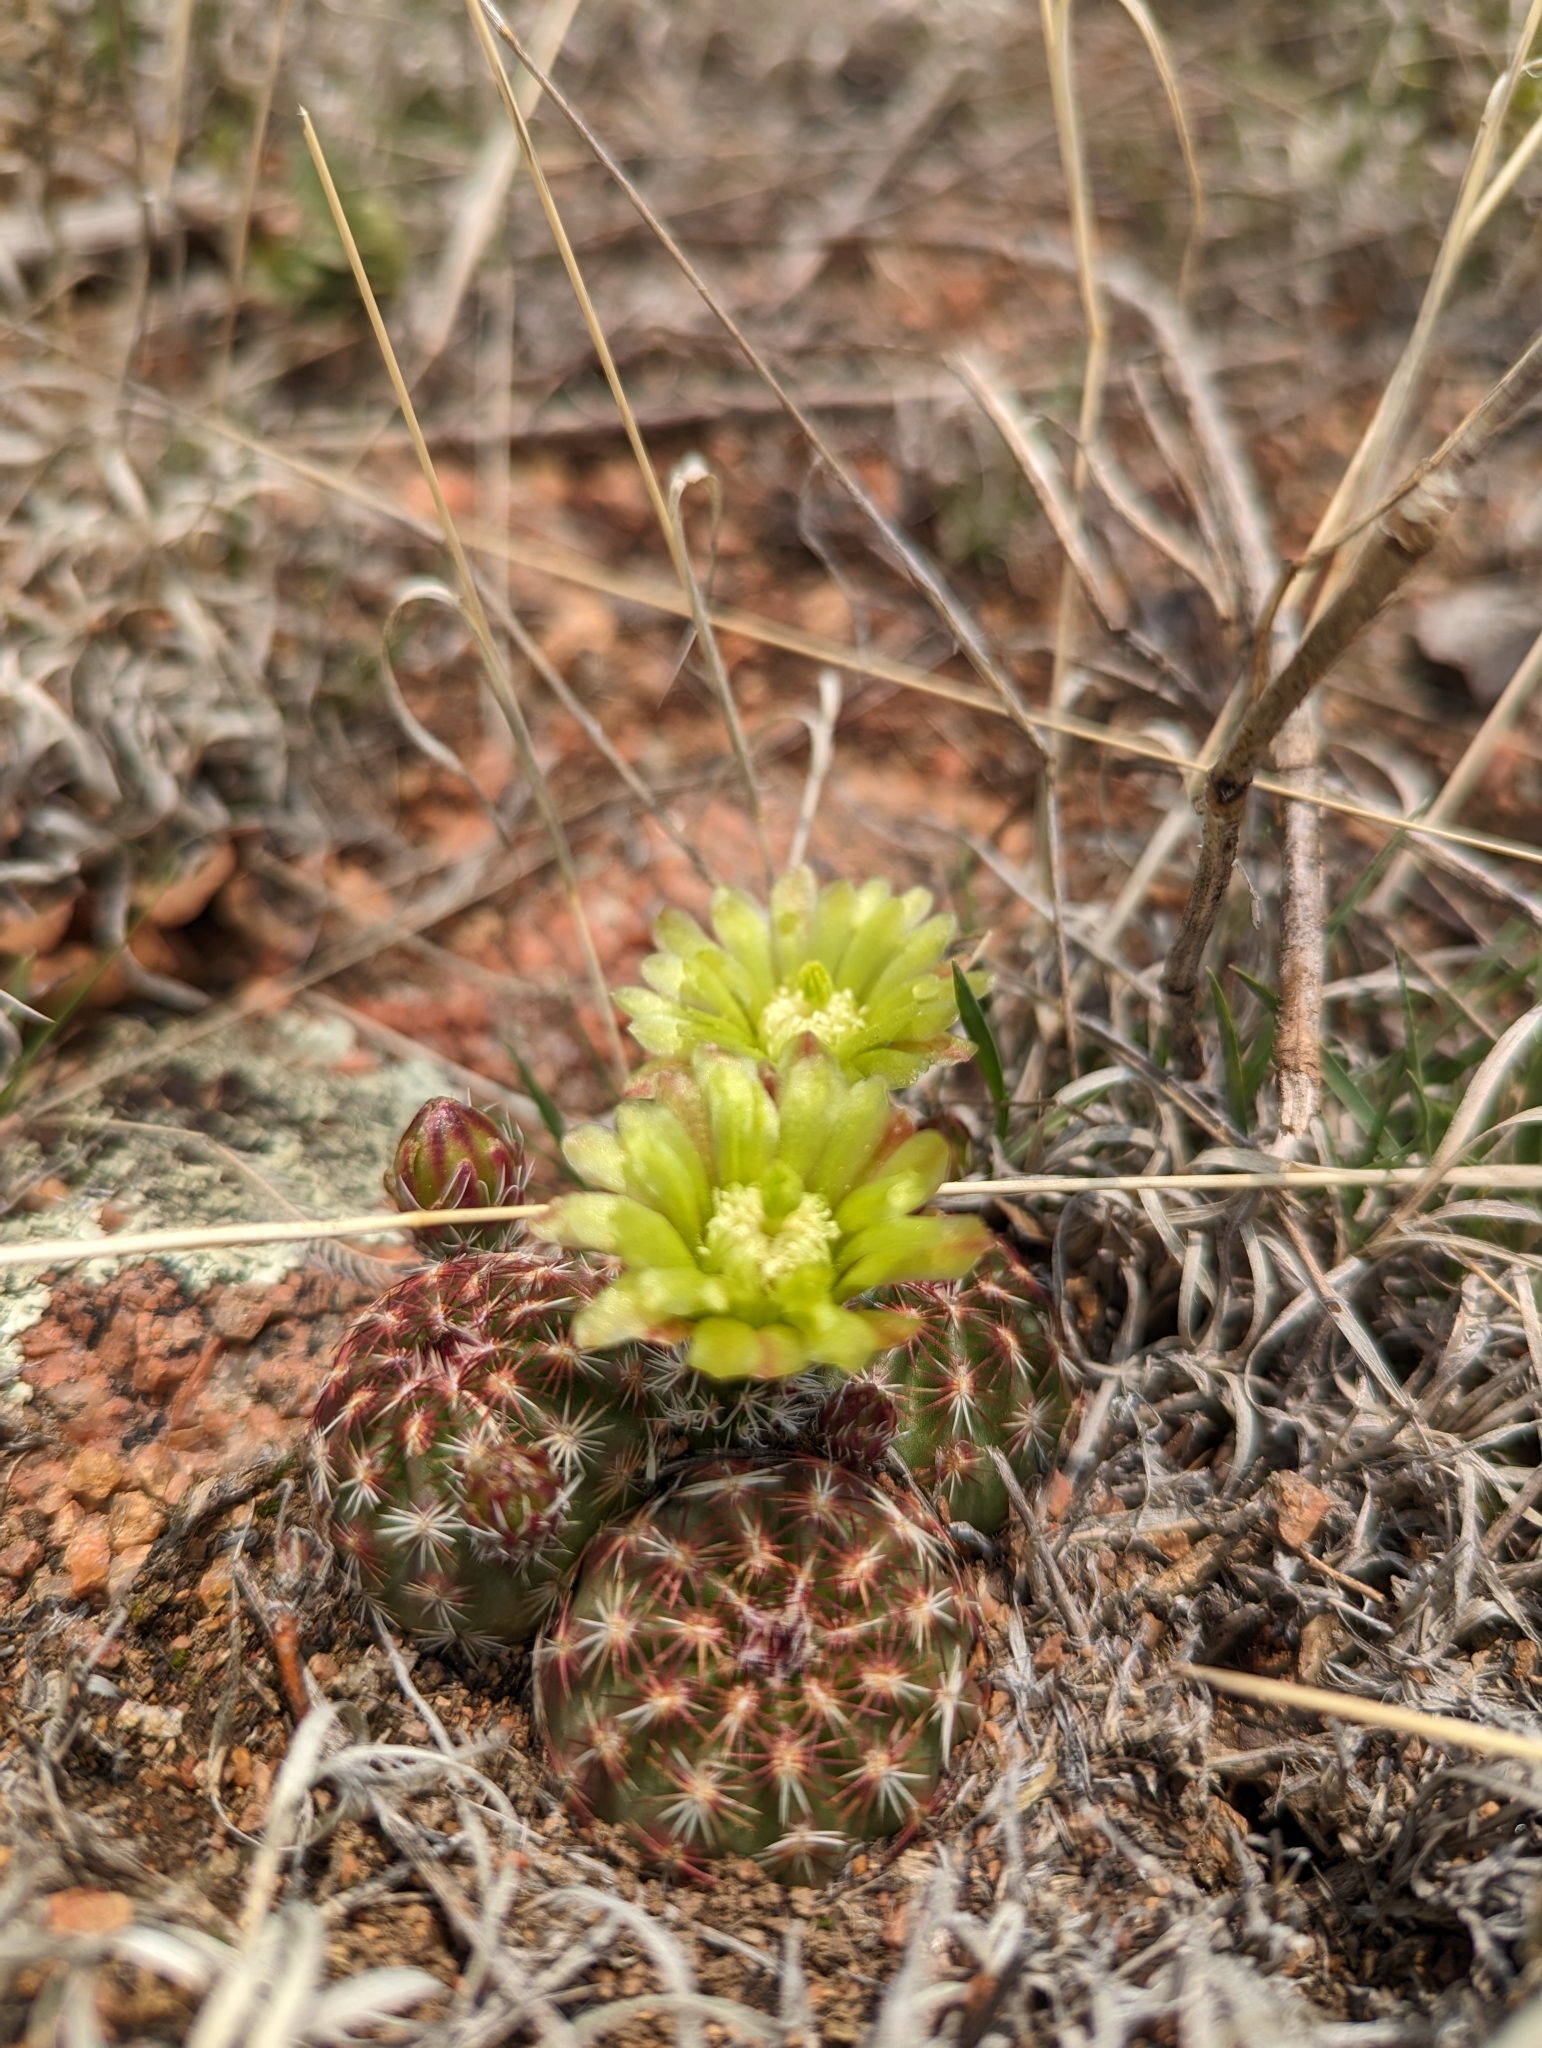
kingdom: Plantae
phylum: Tracheophyta
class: Magnoliopsida
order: Caryophyllales
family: Cactaceae
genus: Echinocereus
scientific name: Echinocereus viridiflorus
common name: Nylon hedgehog cactus
